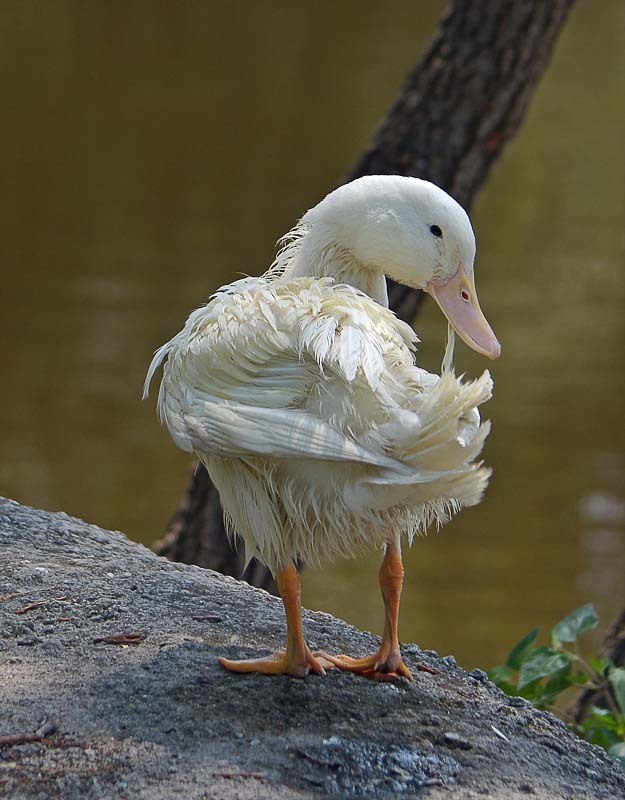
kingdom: Animalia
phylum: Chordata
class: Aves
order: Anseriformes
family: Anatidae
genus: Anas
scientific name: Anas platyrhynchos
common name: Mallard
